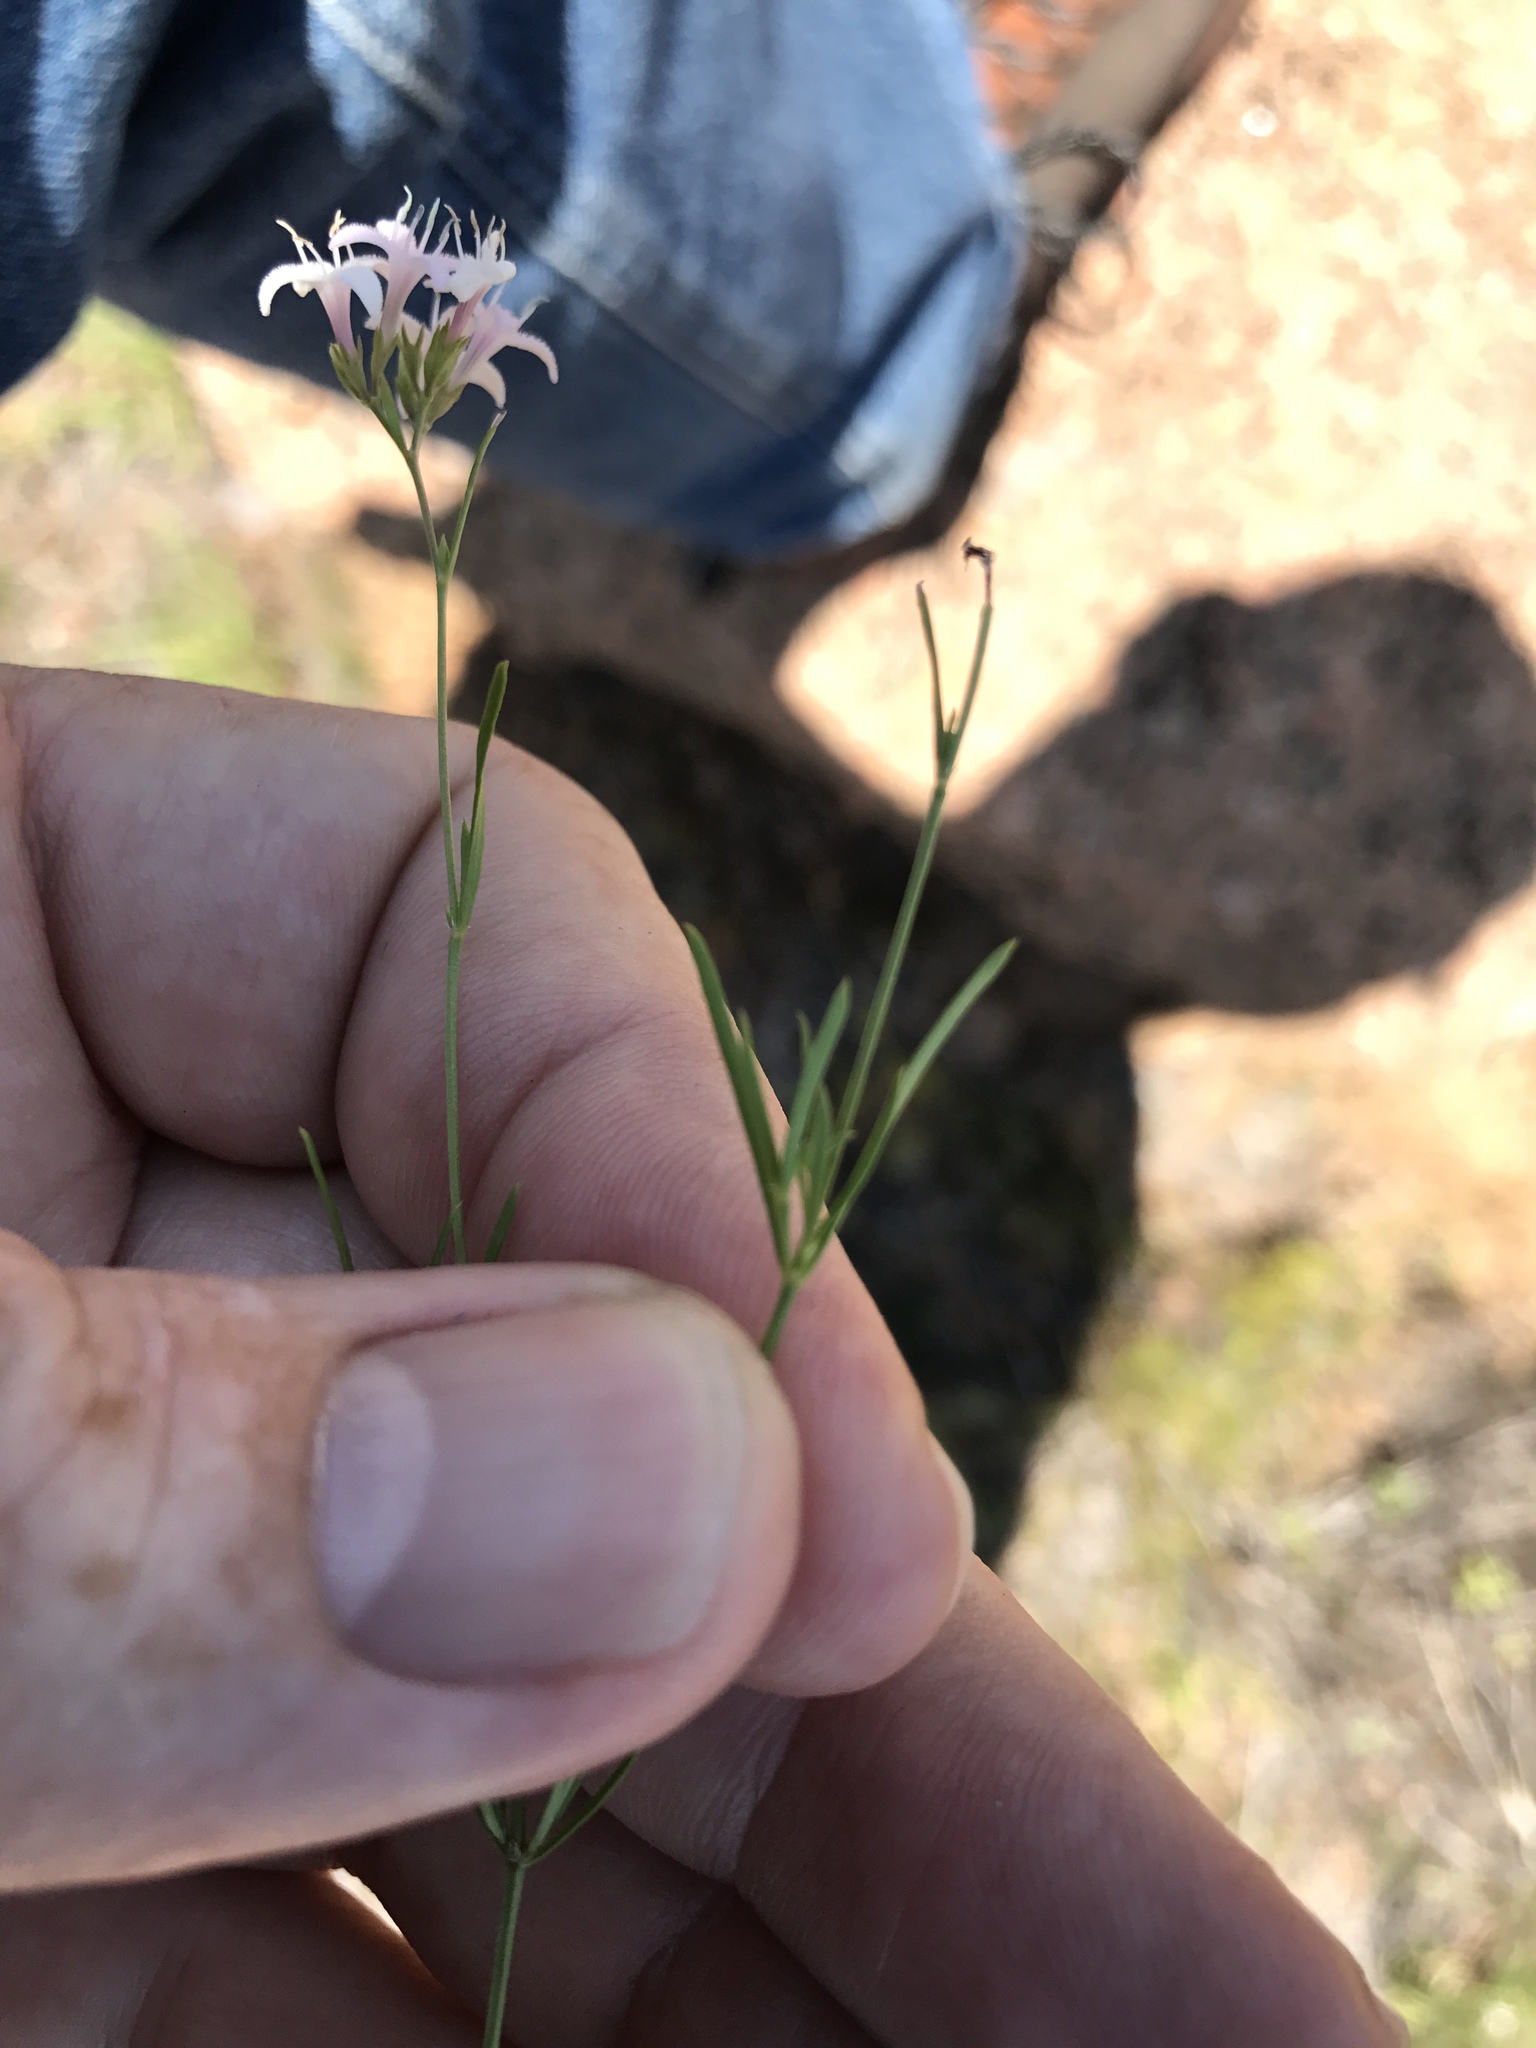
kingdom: Plantae
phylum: Tracheophyta
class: Magnoliopsida
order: Gentianales
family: Rubiaceae
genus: Stenaria
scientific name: Stenaria nigricans
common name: Diamondflowers
